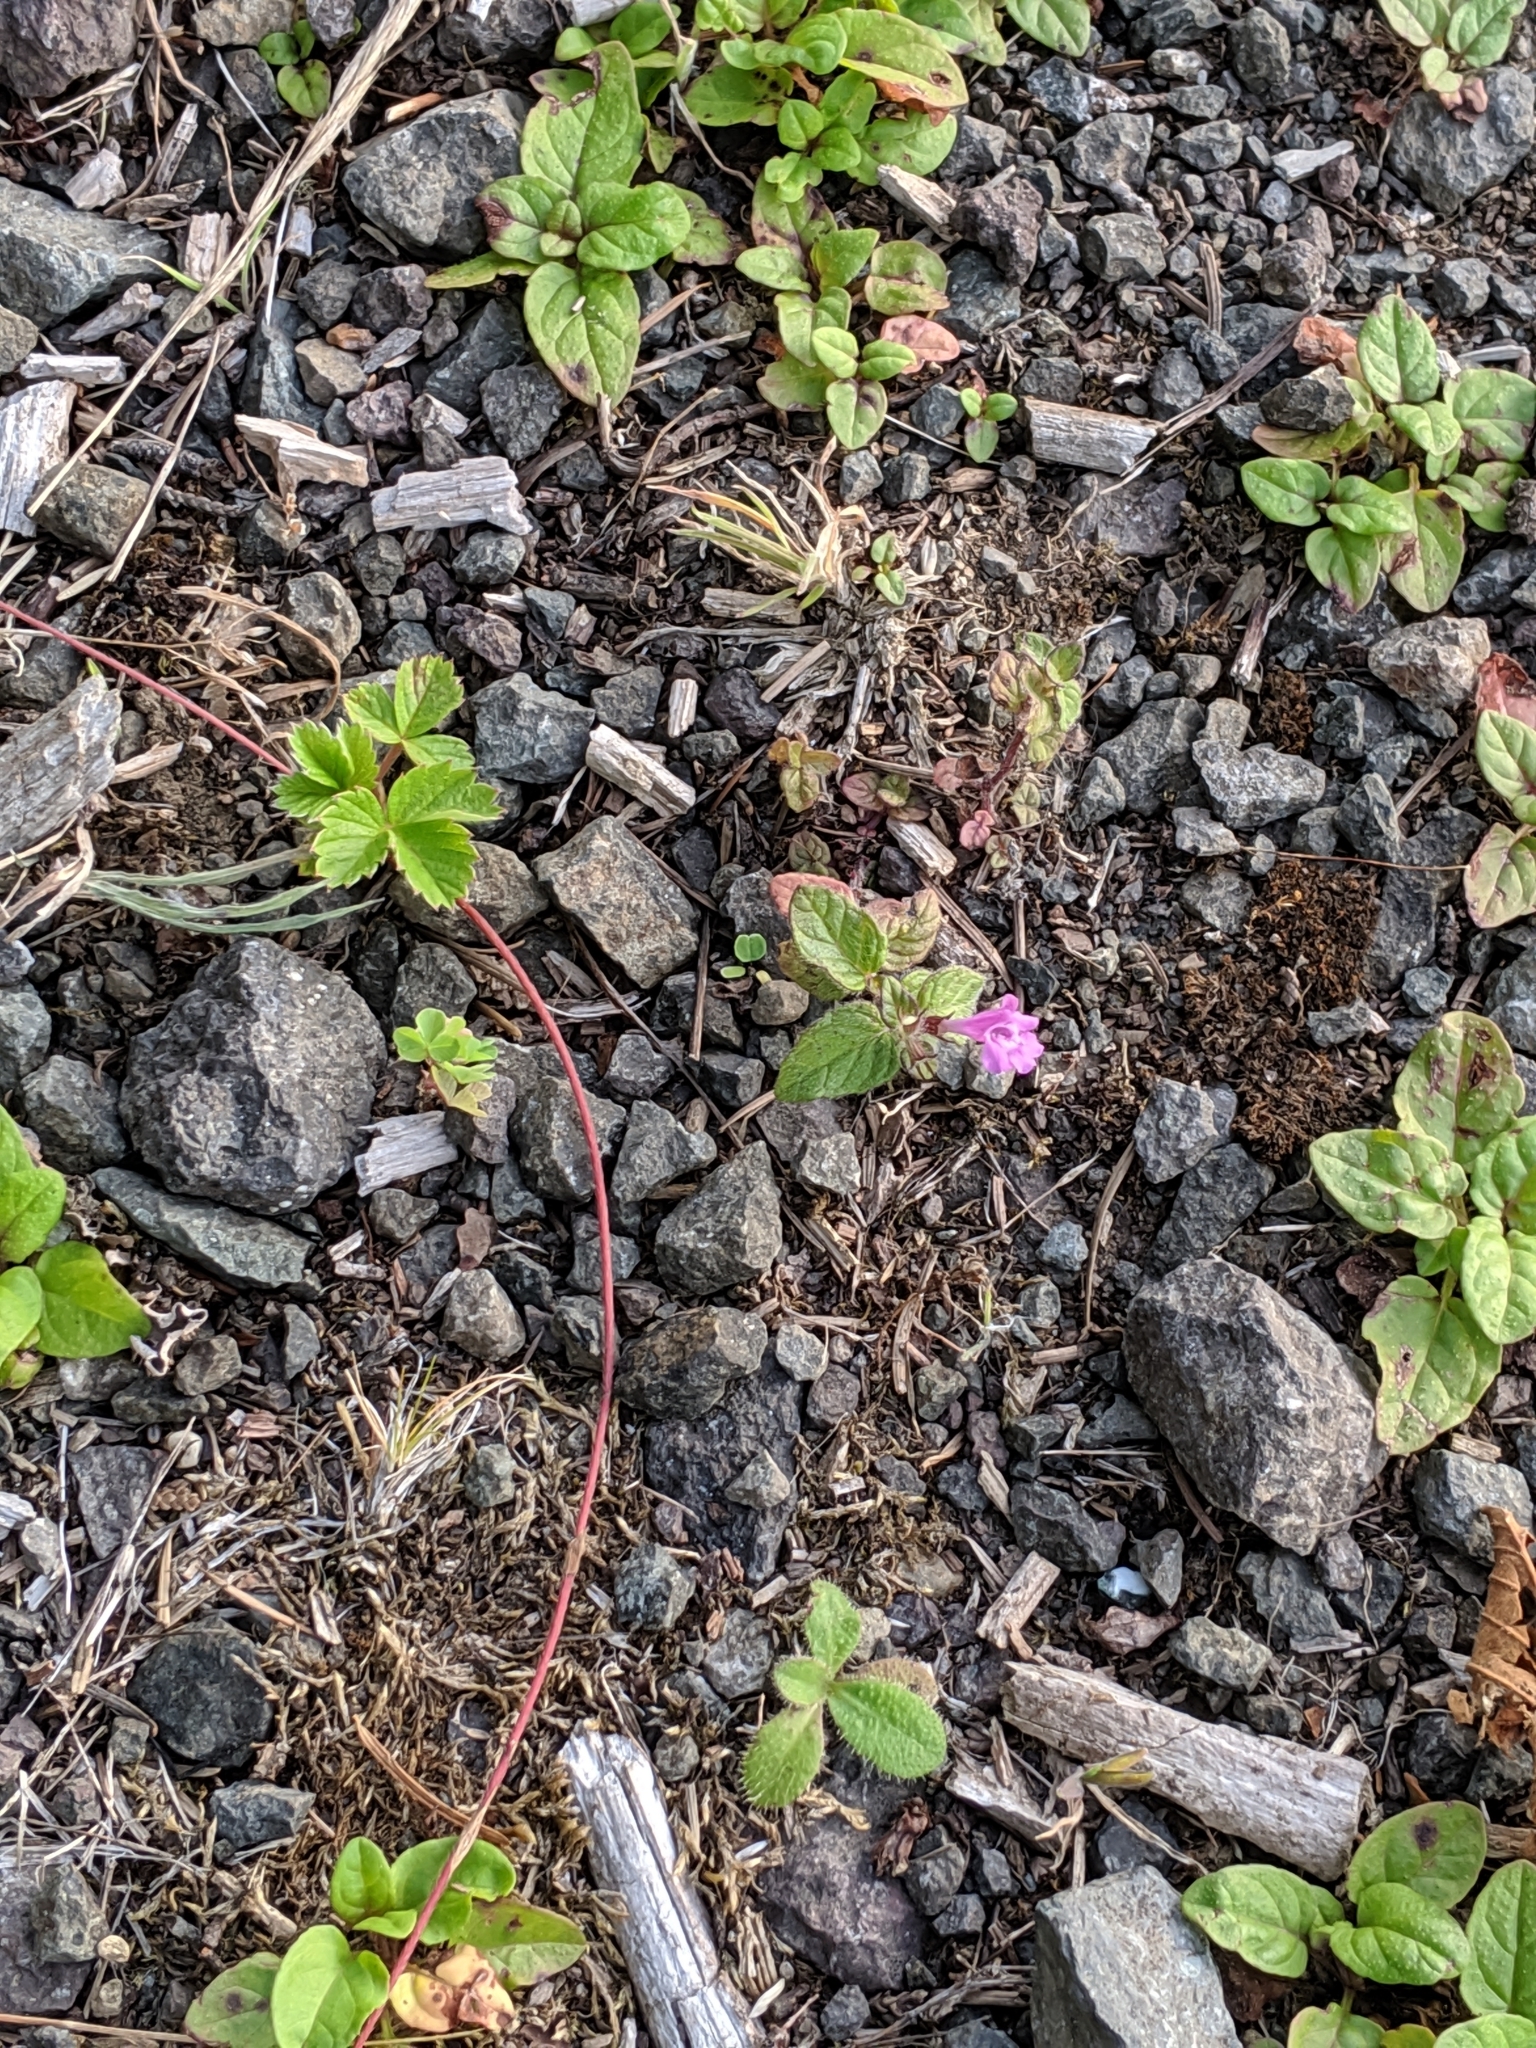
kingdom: Plantae
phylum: Tracheophyta
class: Magnoliopsida
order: Lamiales
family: Lamiaceae
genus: Clinopodium
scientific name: Clinopodium vulgare
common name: Wild basil
